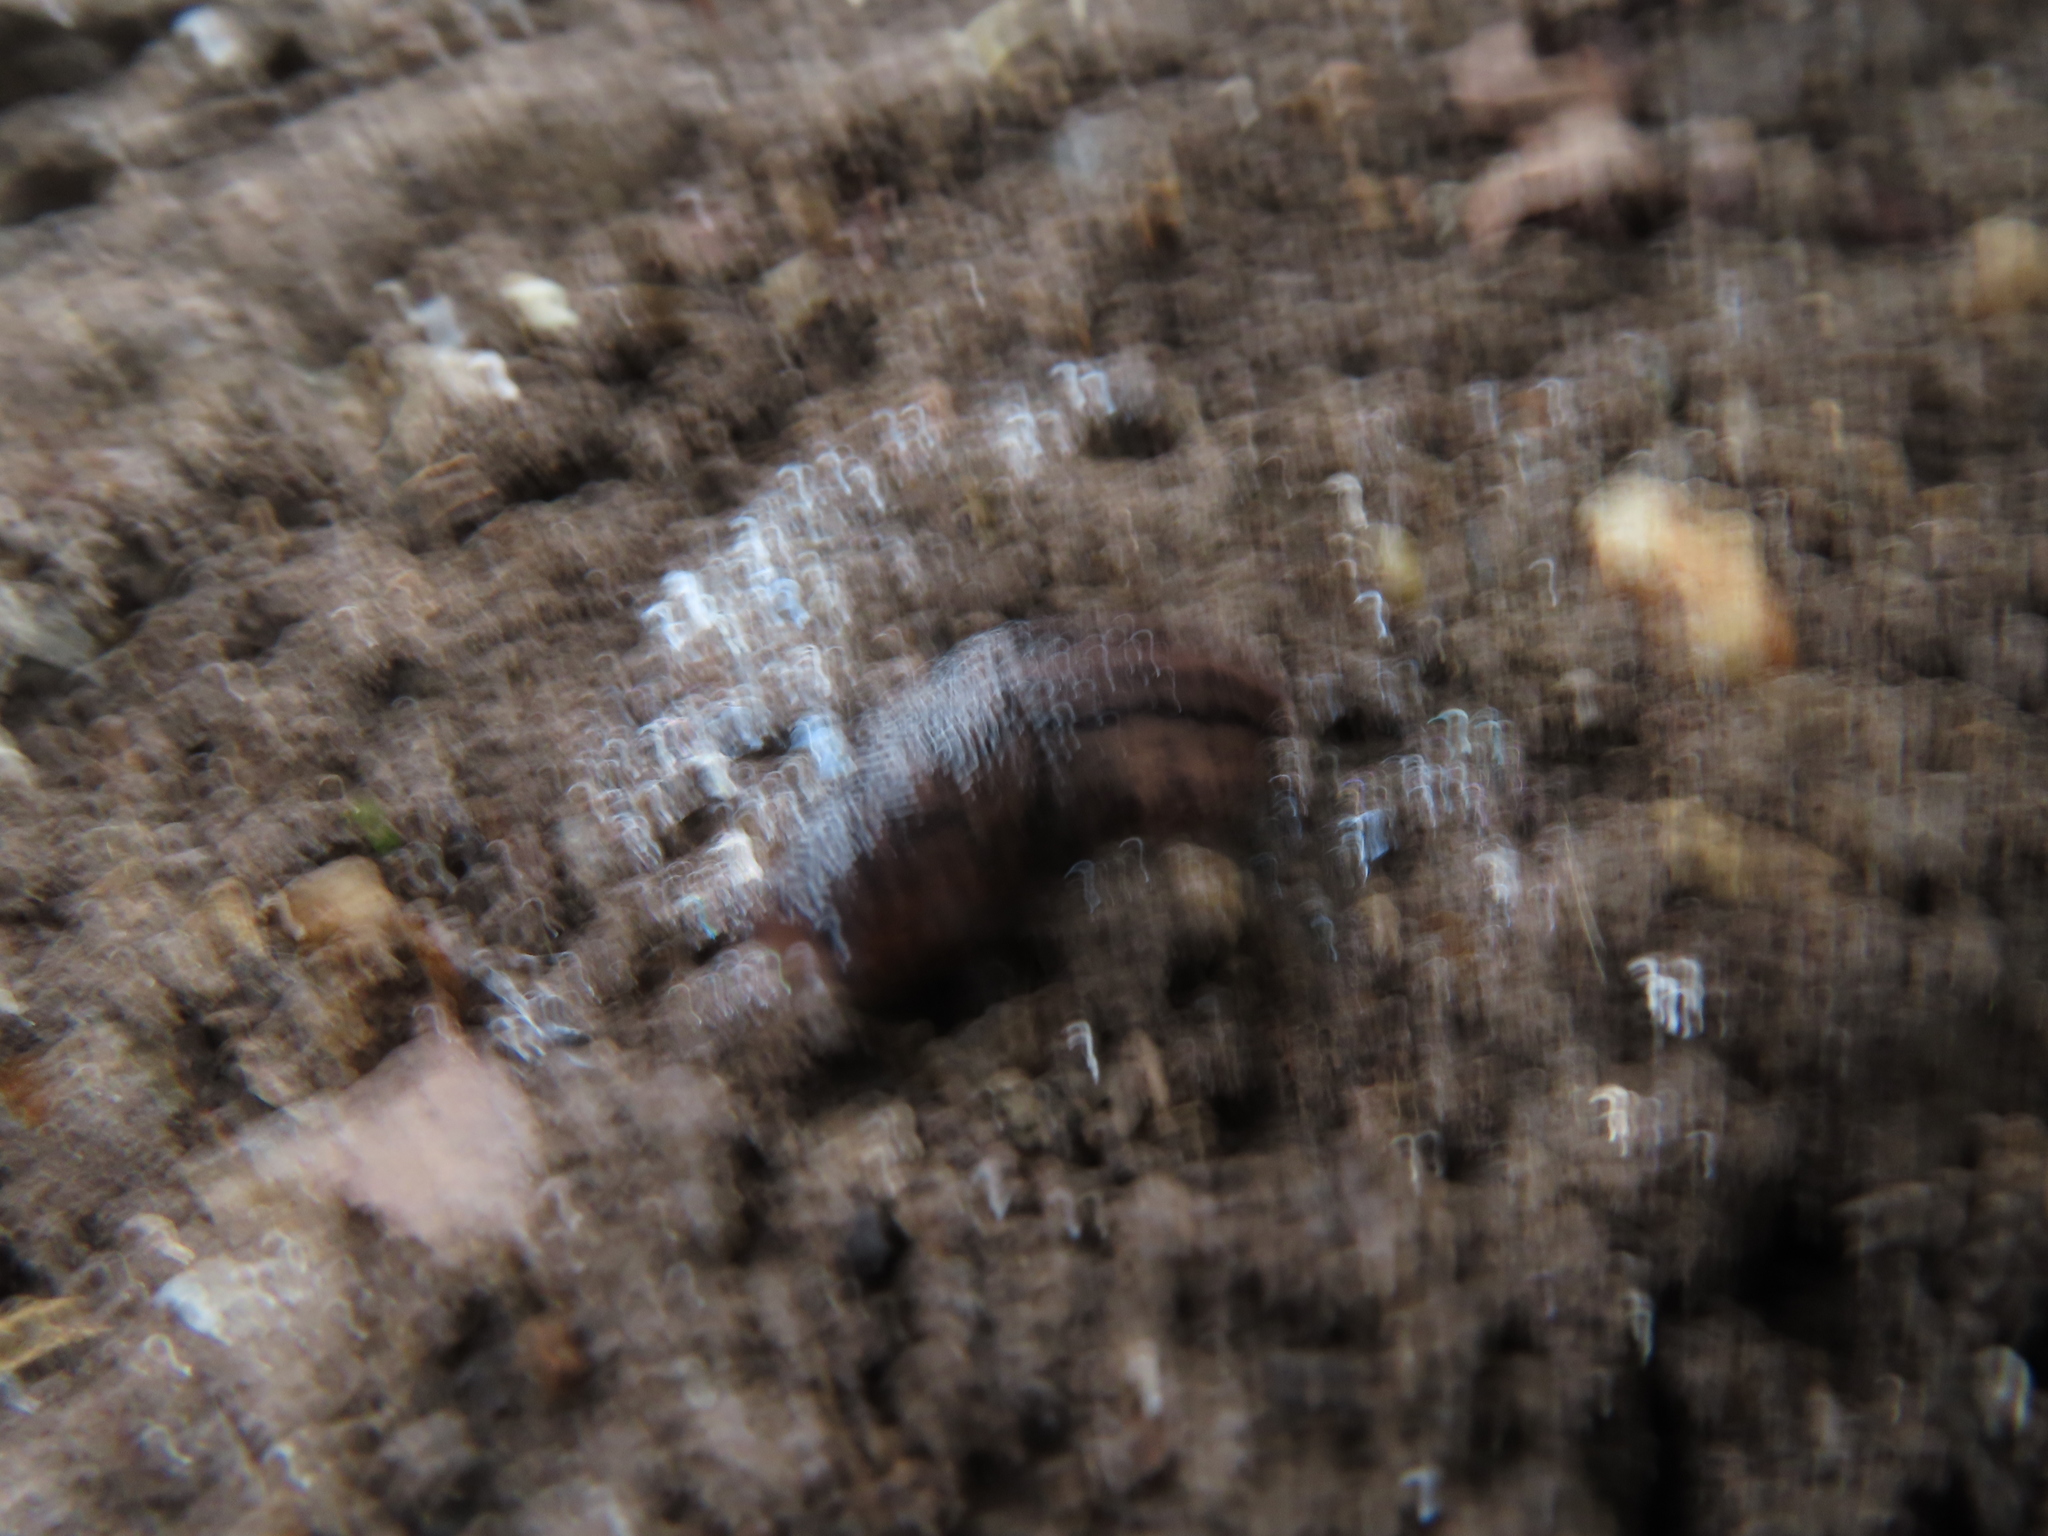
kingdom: Animalia
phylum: Mollusca
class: Gastropoda
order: Stylommatophora
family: Limacidae
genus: Limax
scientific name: Limax maximus
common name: Great grey slug
